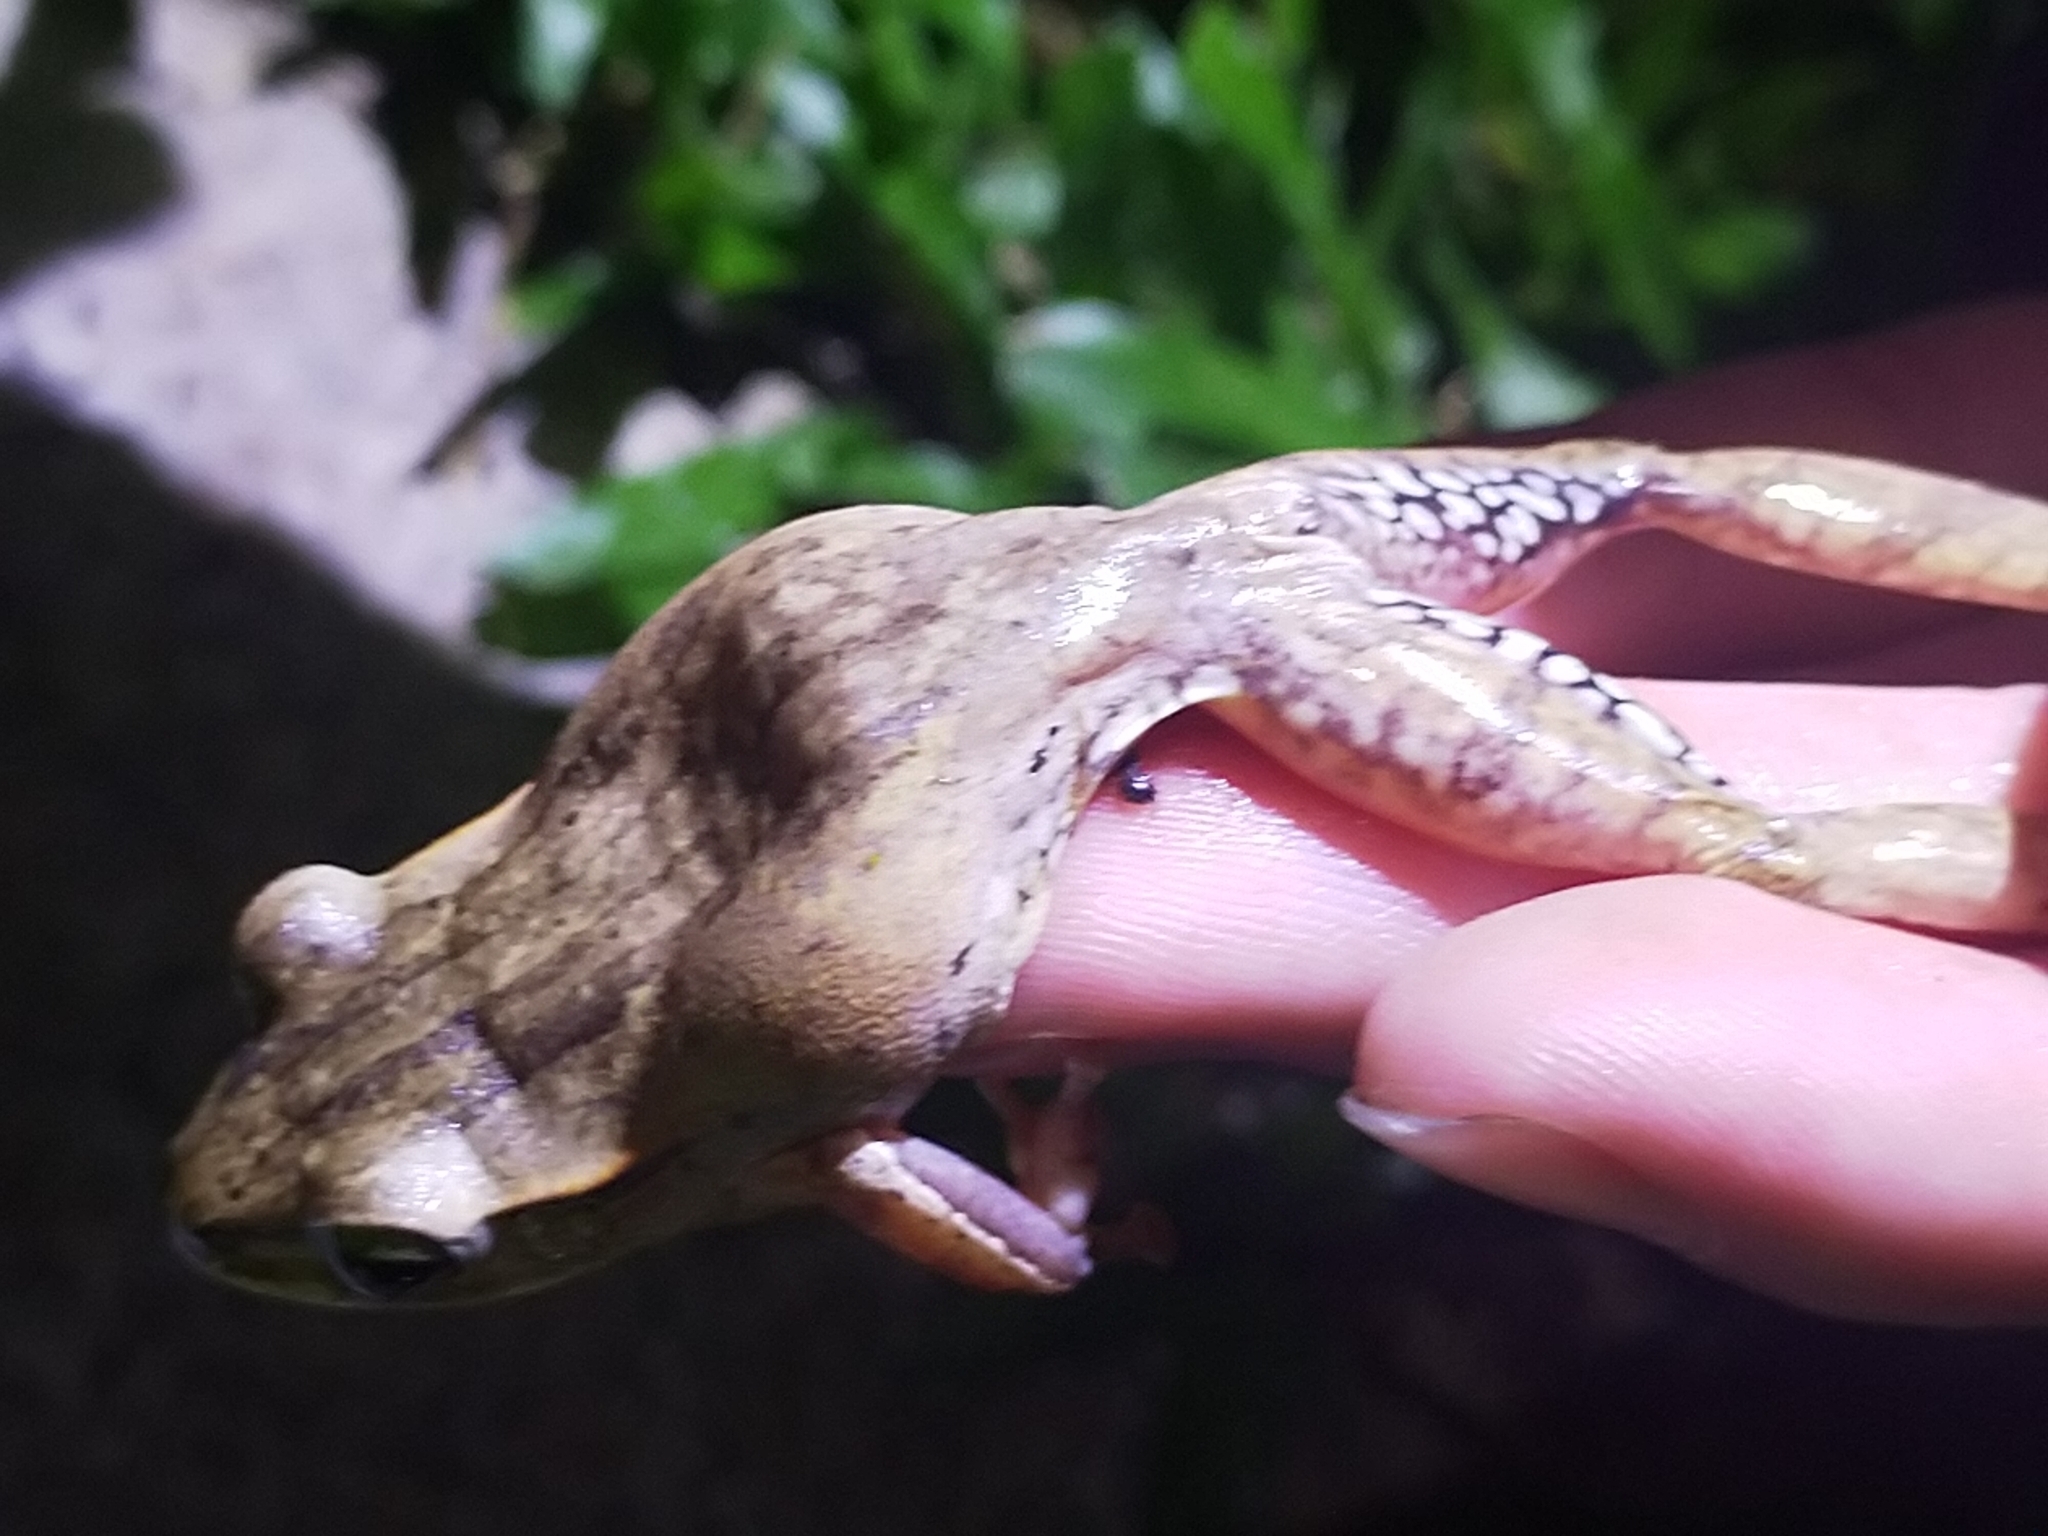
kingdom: Animalia
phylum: Chordata
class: Amphibia
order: Anura
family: Rhacophoridae
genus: Polypedates
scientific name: Polypedates braueri
